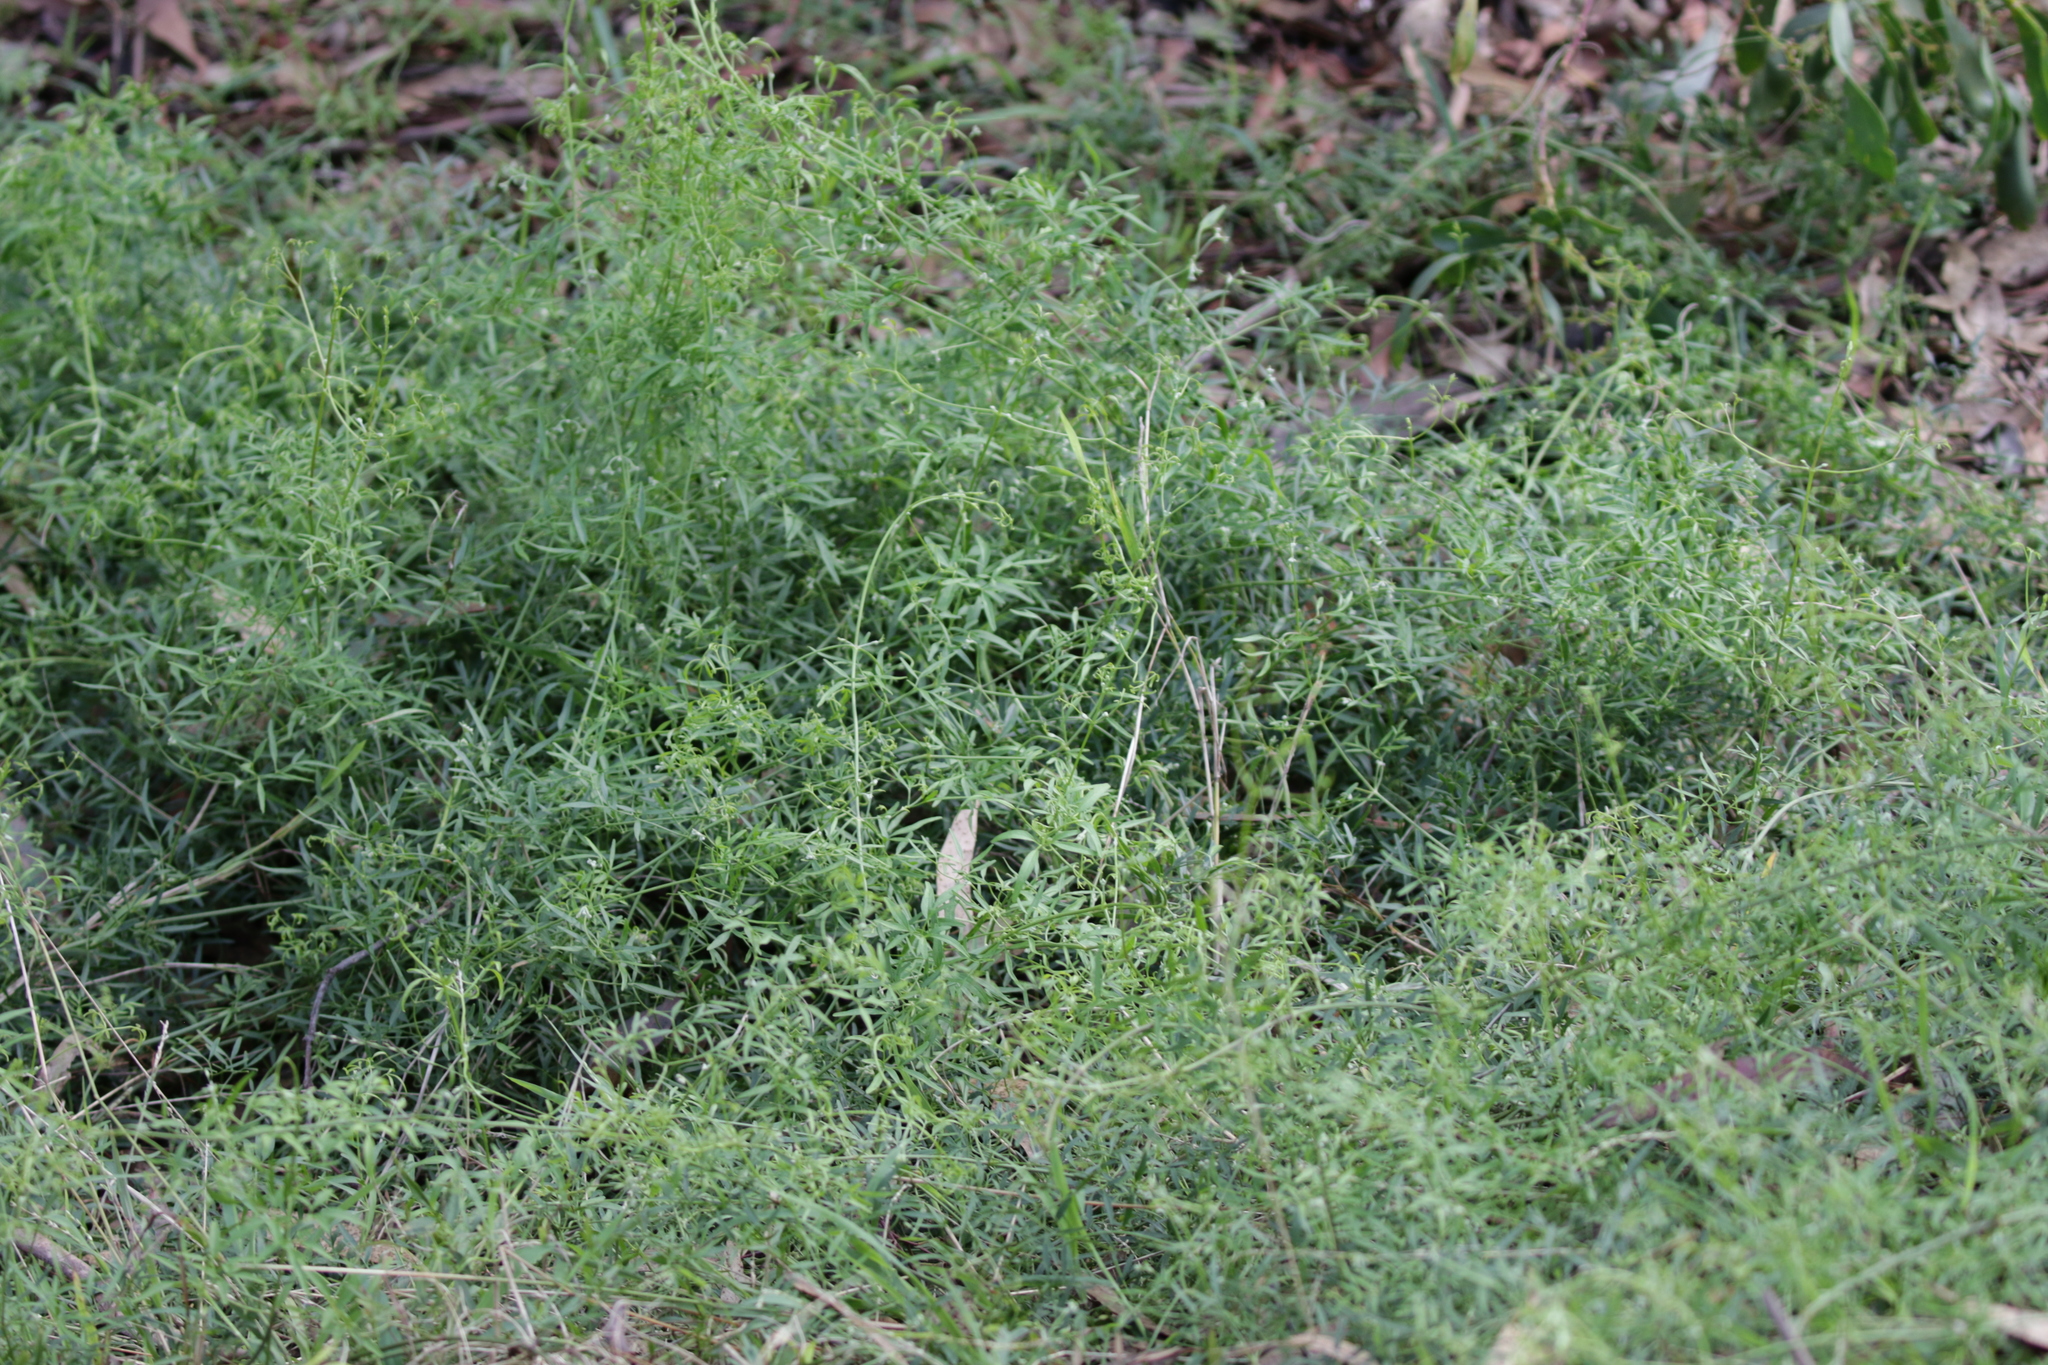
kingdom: Plantae
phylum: Tracheophyta
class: Magnoliopsida
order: Ranunculales
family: Ranunculaceae
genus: Clematis
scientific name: Clematis microphylla
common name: Headachevine
